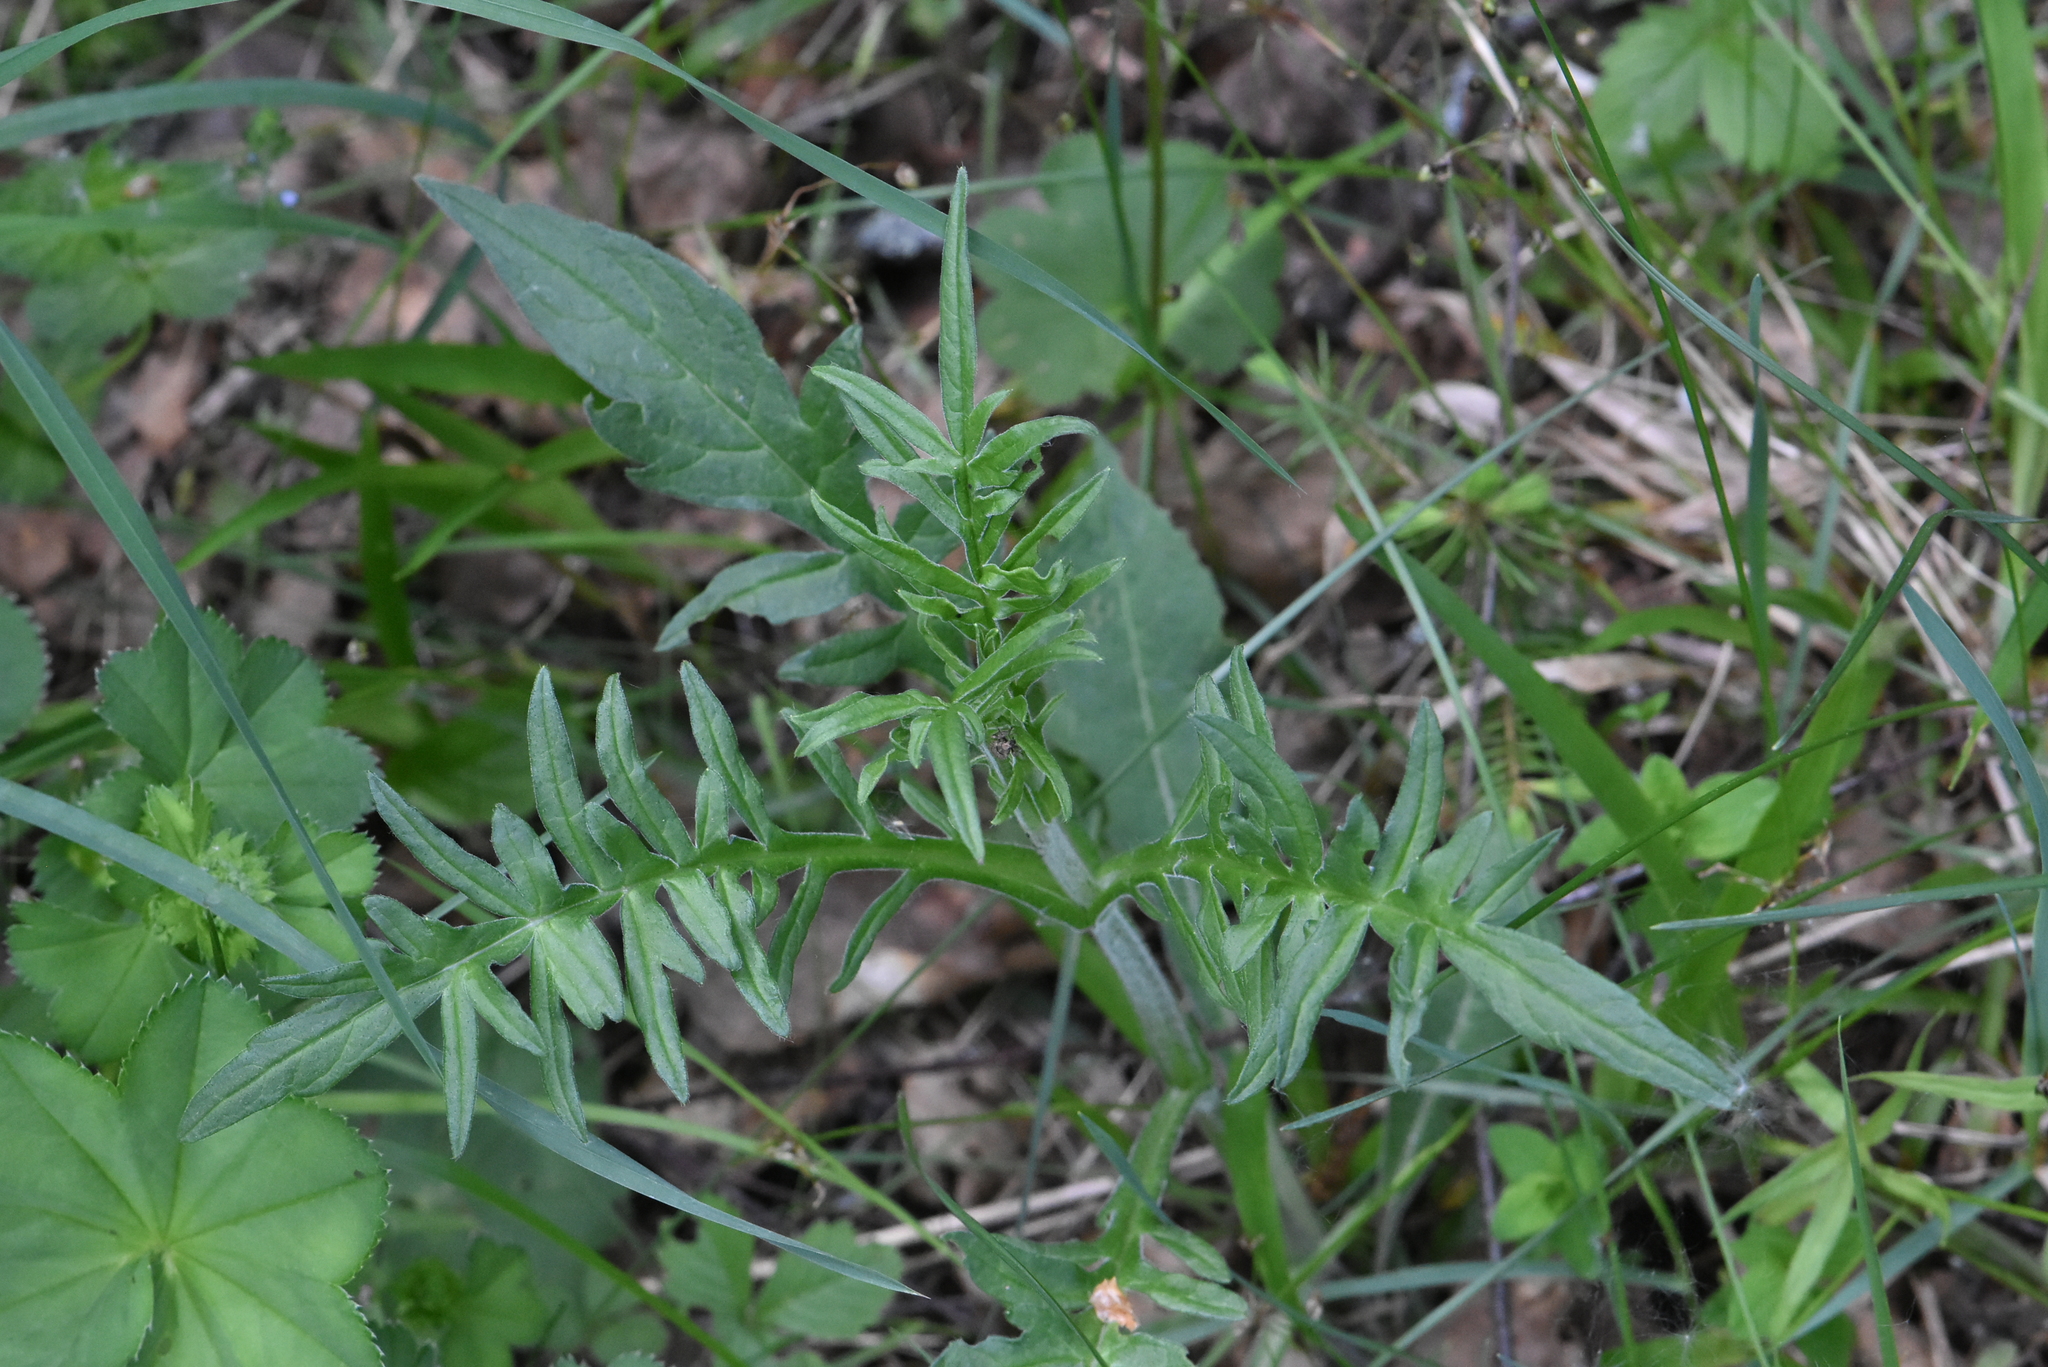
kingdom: Plantae
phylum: Tracheophyta
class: Magnoliopsida
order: Dipsacales
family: Caprifoliaceae
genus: Knautia
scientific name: Knautia arvensis
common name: Field scabiosa
